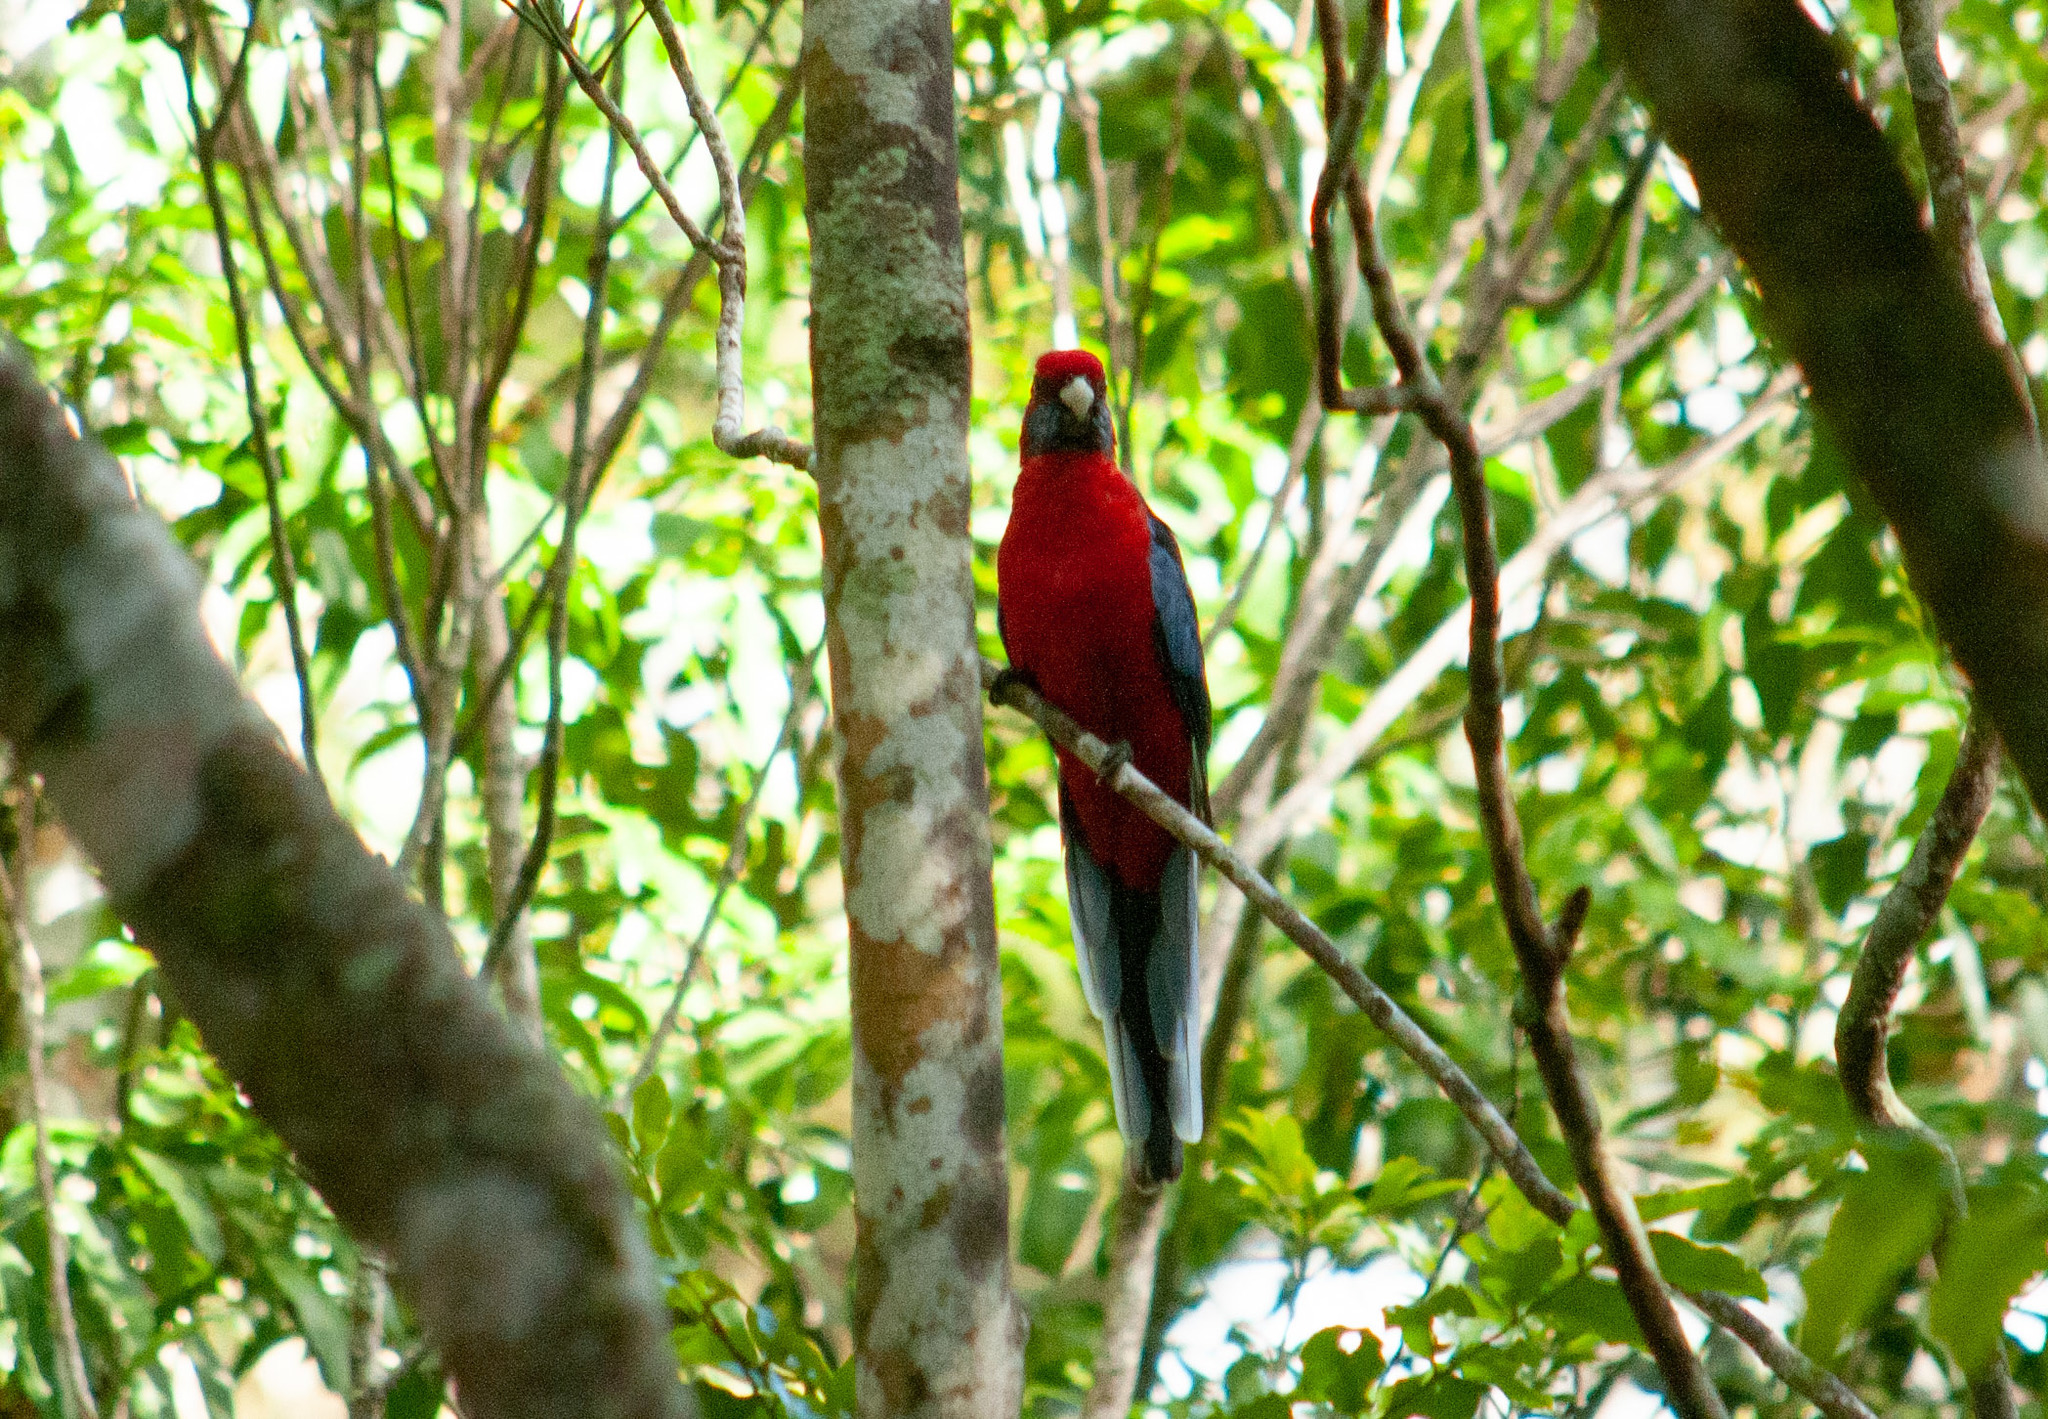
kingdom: Animalia
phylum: Chordata
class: Aves
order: Psittaciformes
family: Psittacidae
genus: Platycercus
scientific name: Platycercus elegans
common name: Crimson rosella
